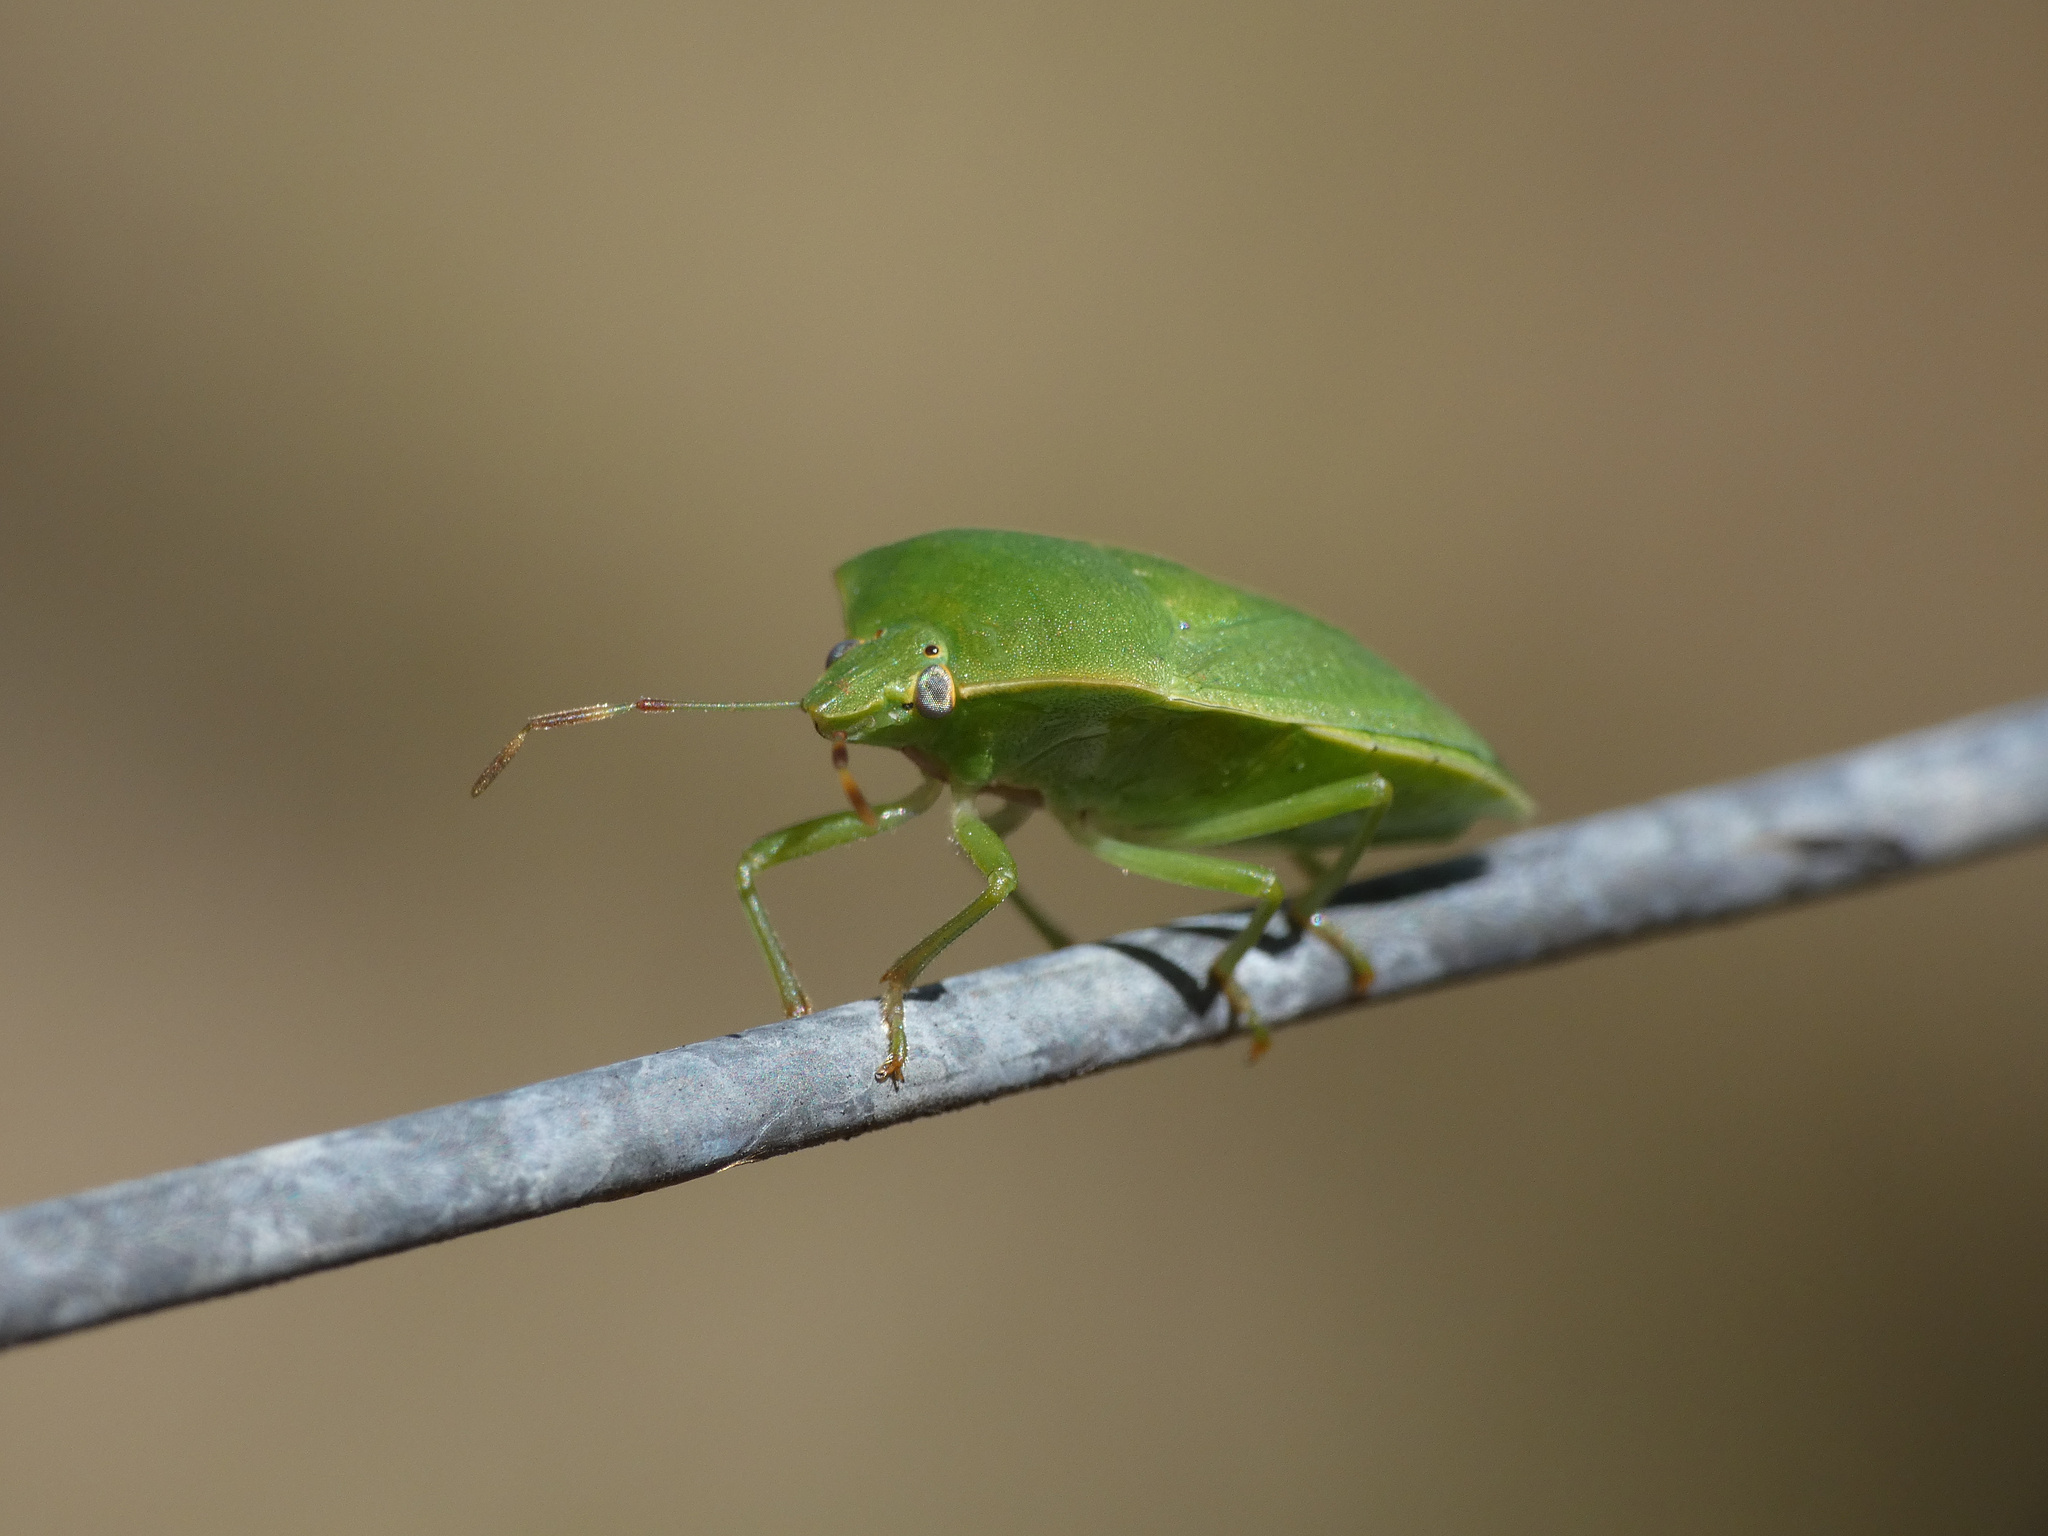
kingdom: Animalia
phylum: Arthropoda
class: Insecta
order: Hemiptera
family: Pentatomidae
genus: Nezara
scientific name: Nezara viridula
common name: Southern green stink bug
